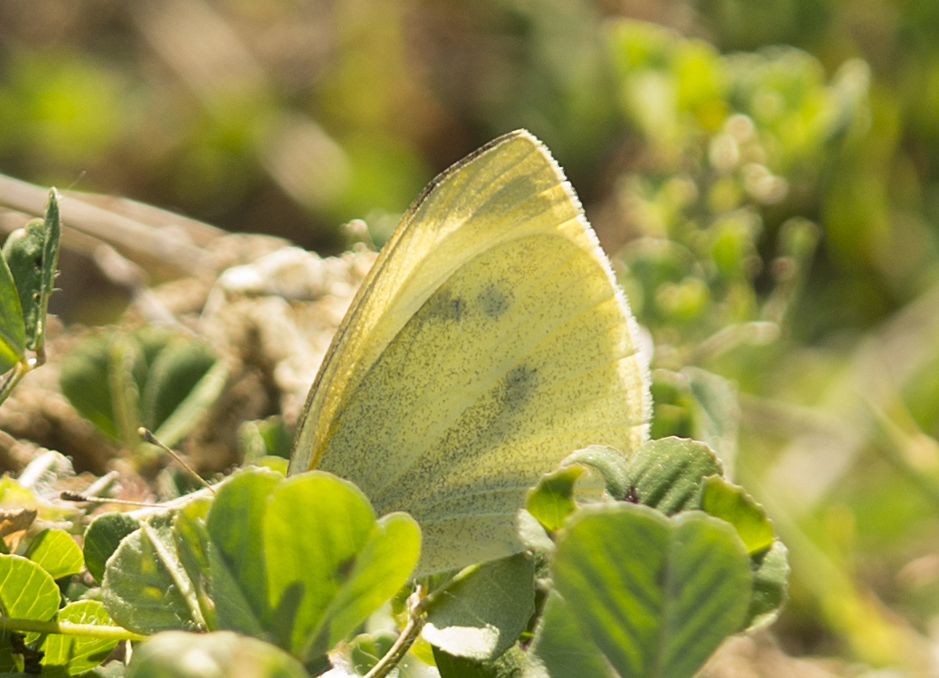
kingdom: Animalia
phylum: Arthropoda
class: Insecta
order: Lepidoptera
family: Pieridae
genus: Pieris
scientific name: Pieris rapae
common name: Small white
